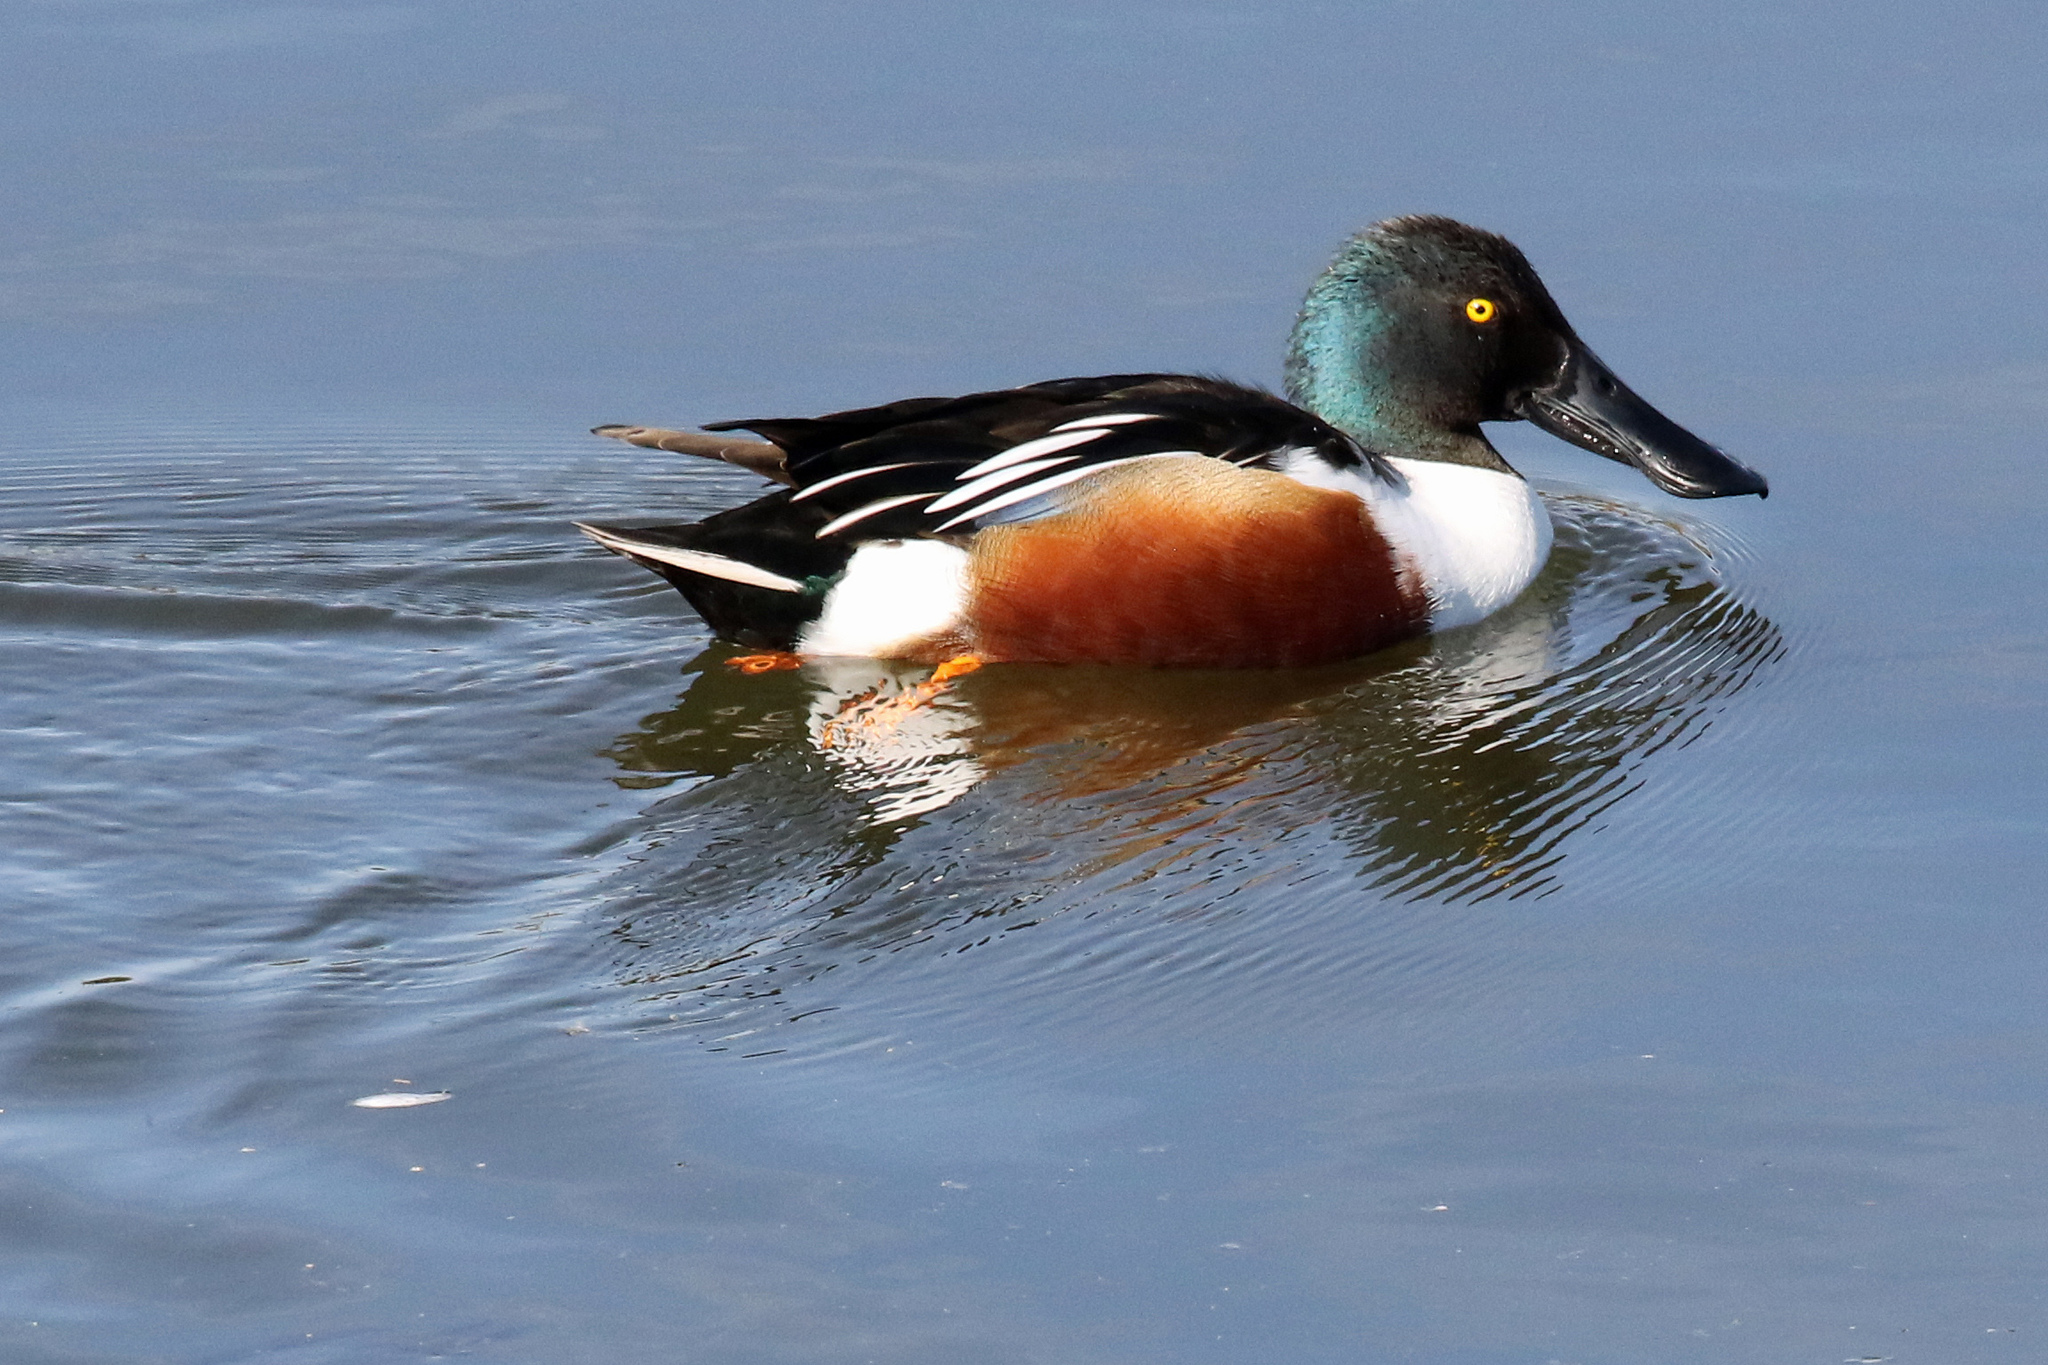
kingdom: Animalia
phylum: Chordata
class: Aves
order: Anseriformes
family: Anatidae
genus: Spatula
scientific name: Spatula clypeata
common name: Northern shoveler
